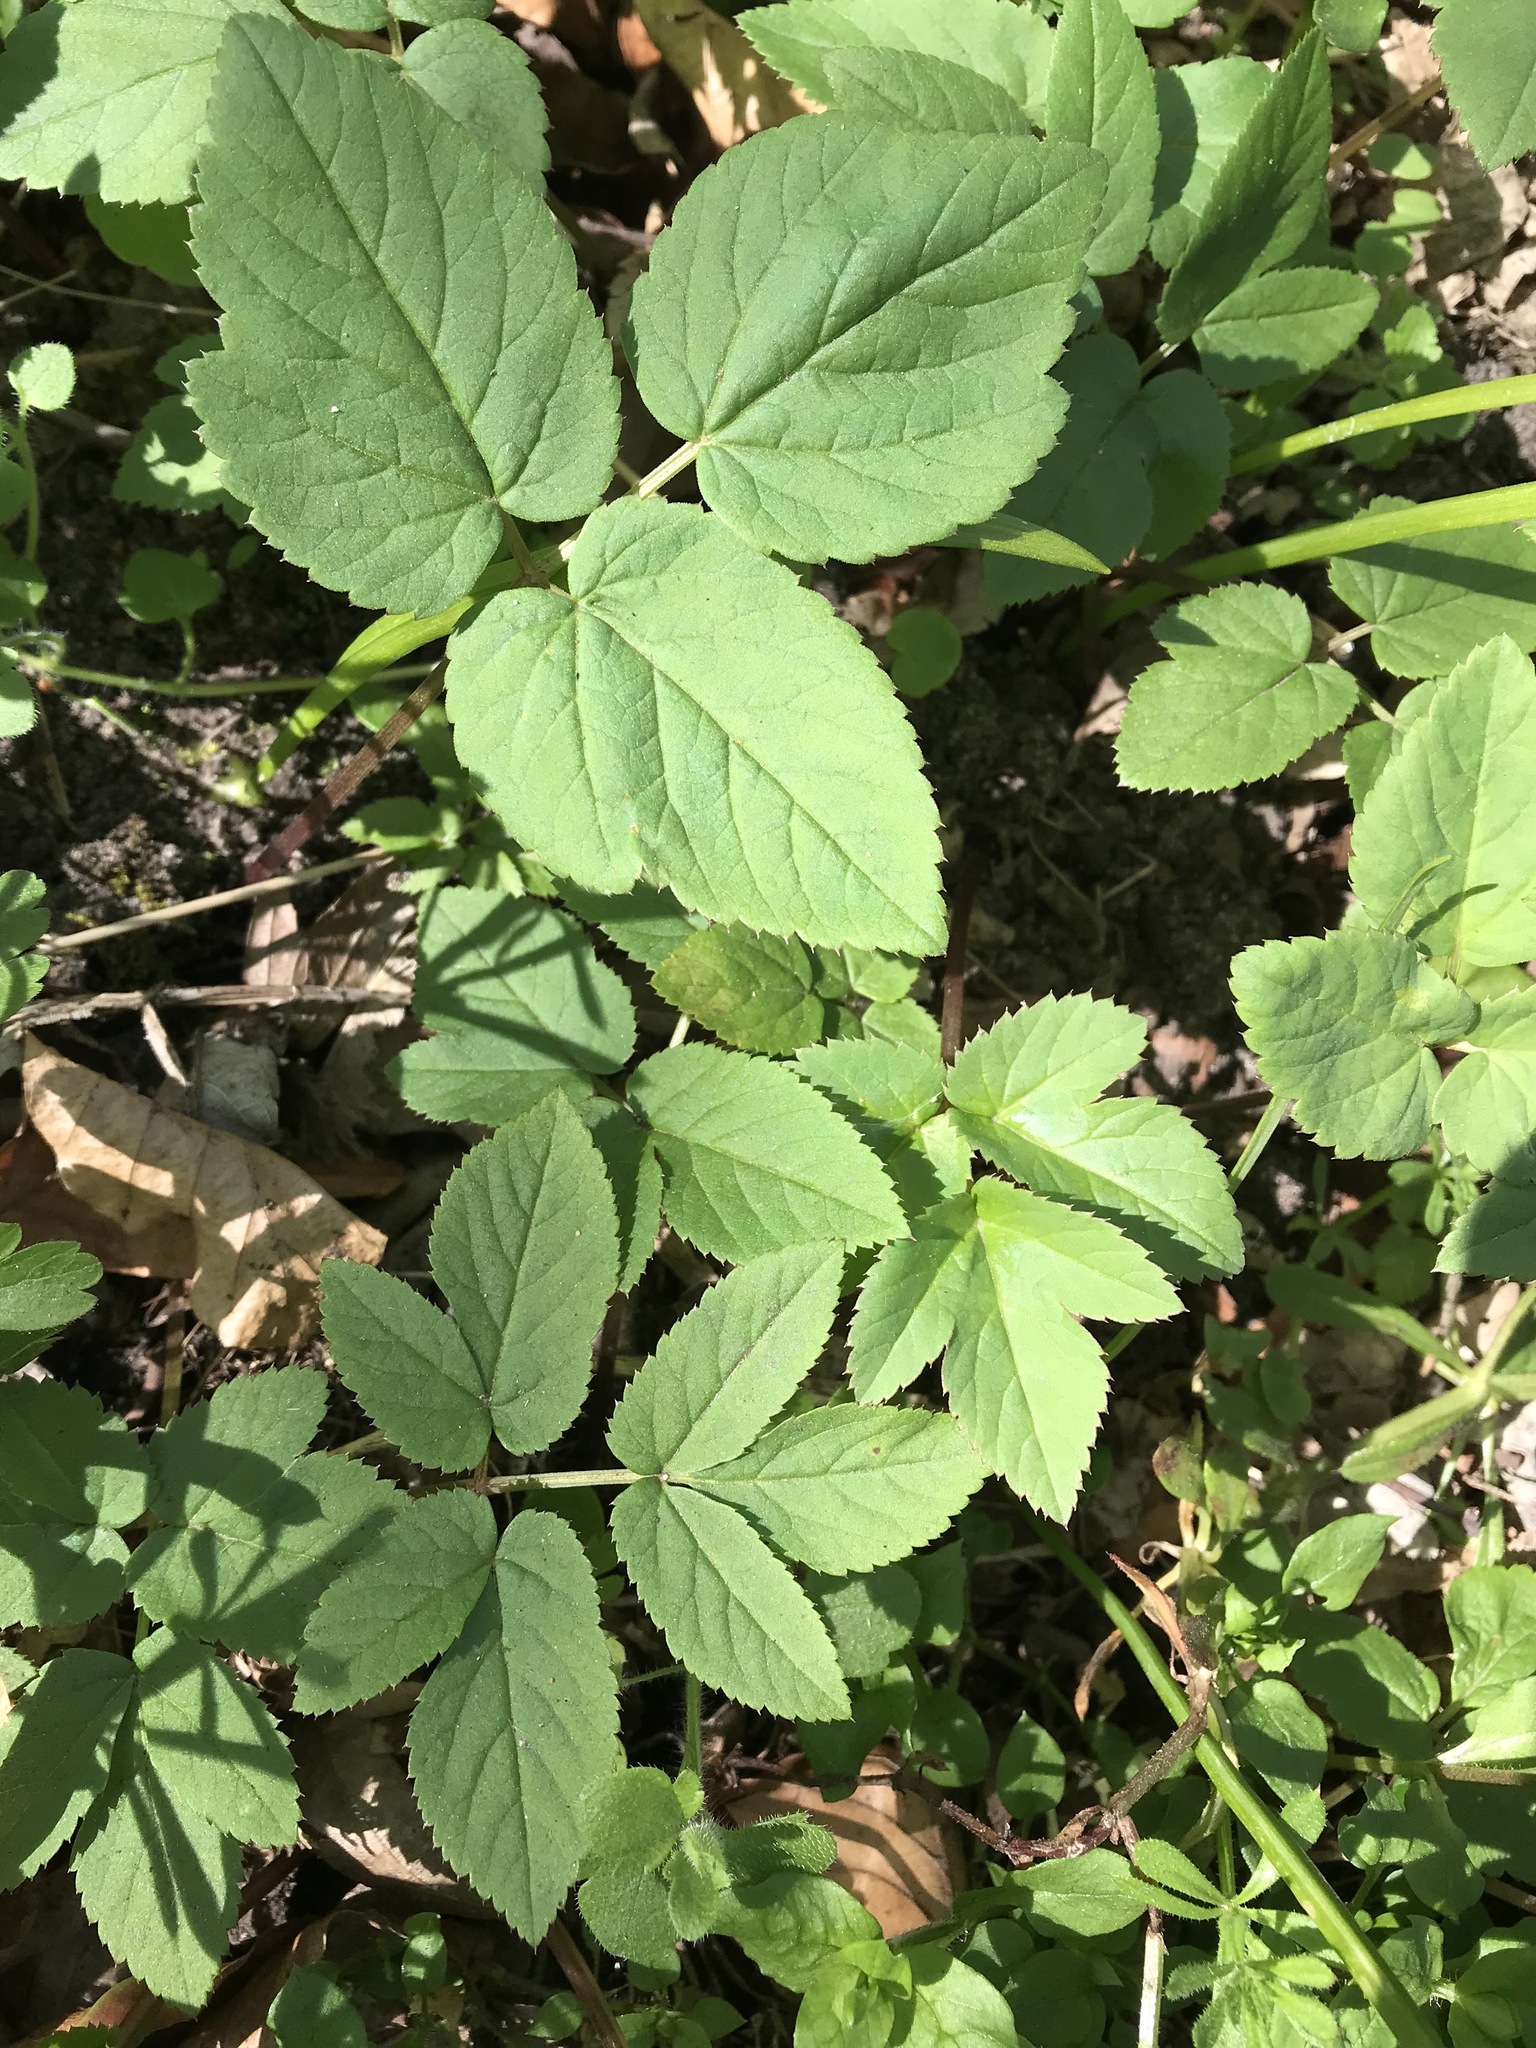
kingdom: Plantae
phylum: Tracheophyta
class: Magnoliopsida
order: Apiales
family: Apiaceae
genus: Aegopodium
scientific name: Aegopodium podagraria
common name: Ground-elder
